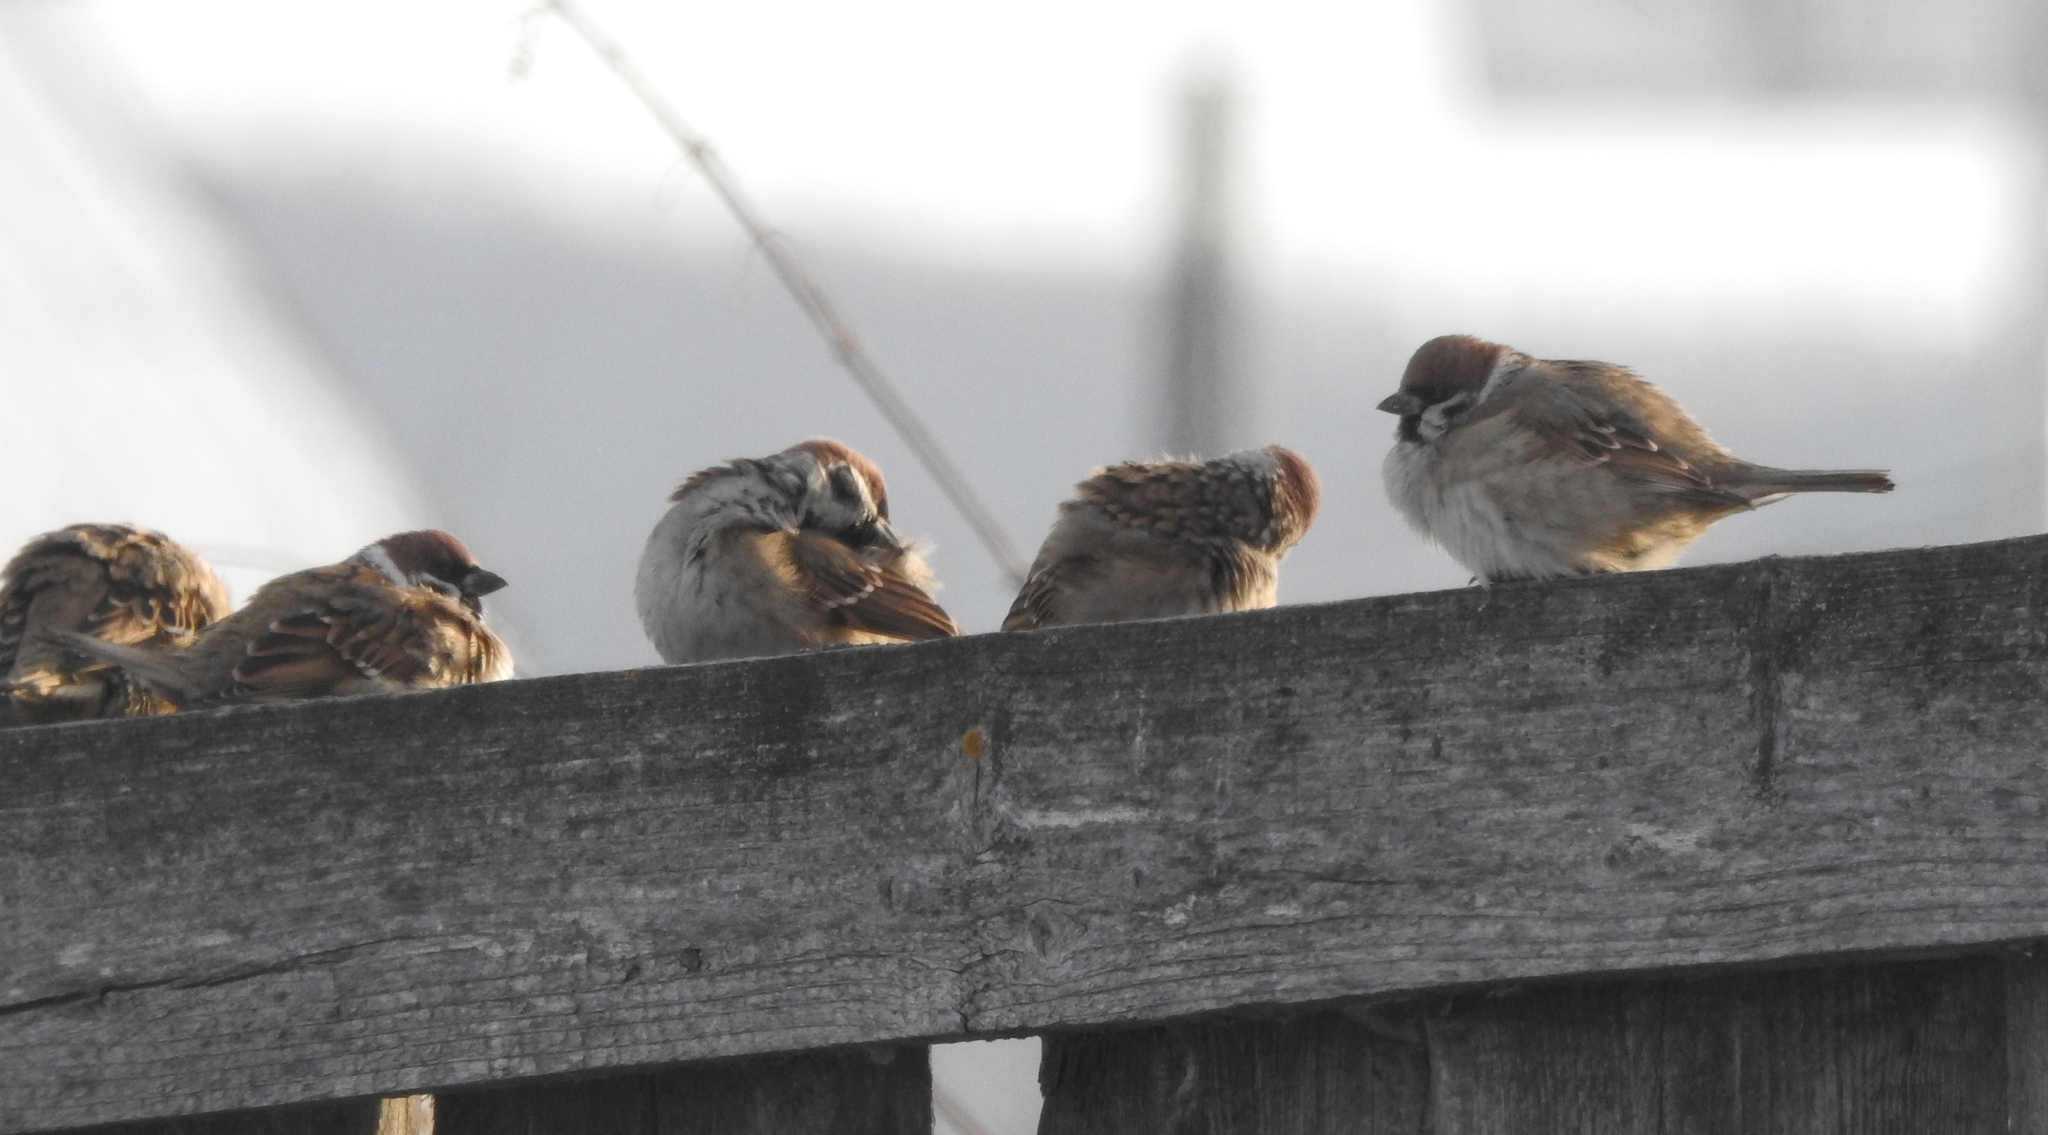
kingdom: Animalia
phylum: Chordata
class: Aves
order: Passeriformes
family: Passeridae
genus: Passer
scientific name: Passer montanus
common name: Eurasian tree sparrow
